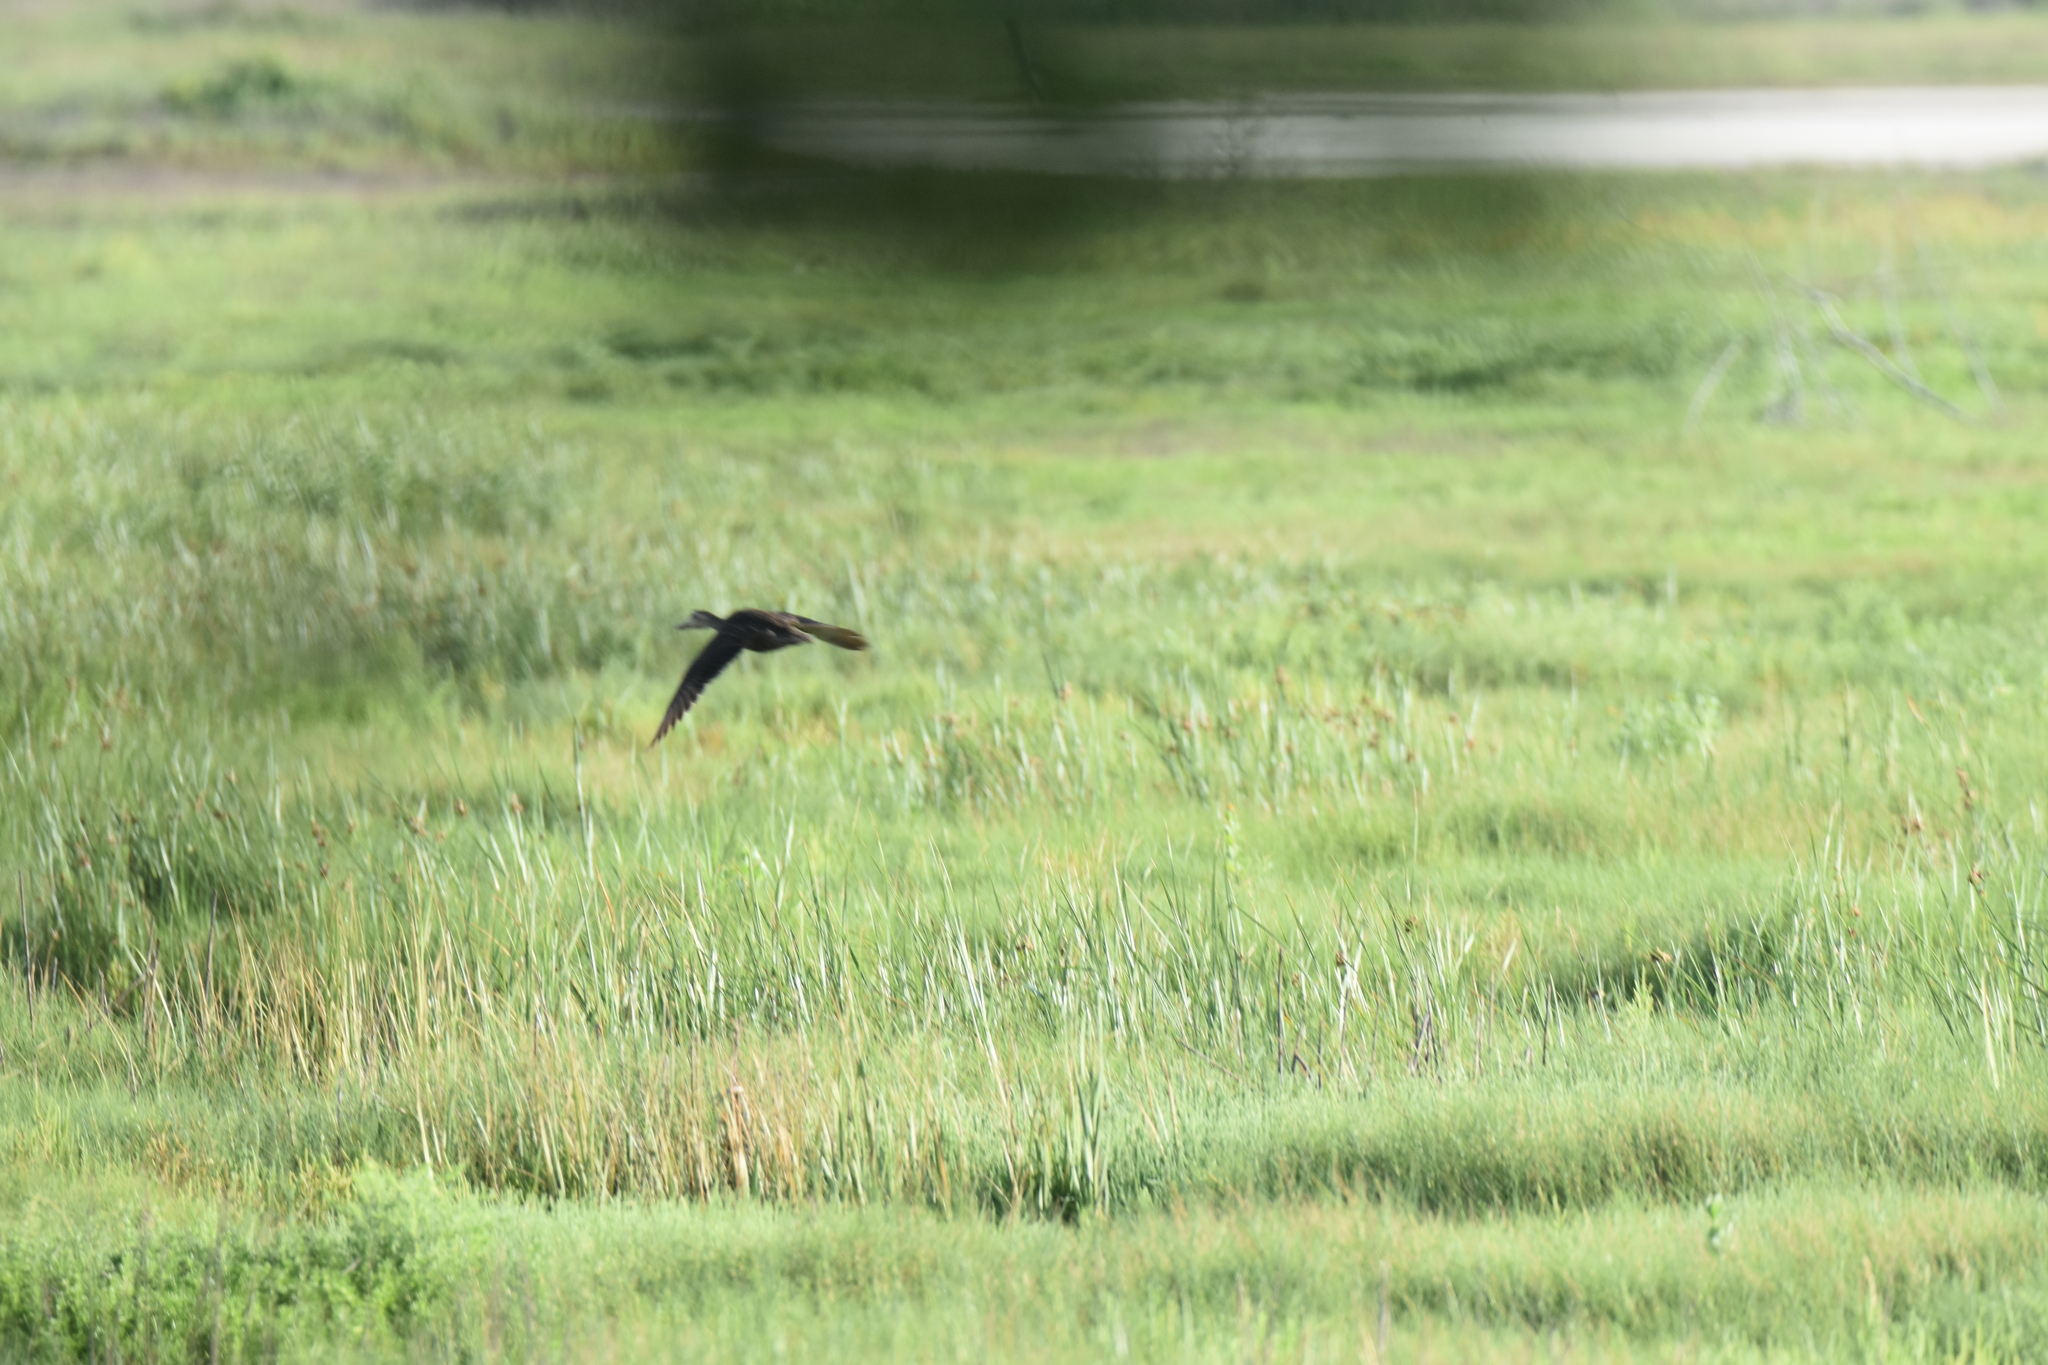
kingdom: Animalia
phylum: Chordata
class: Aves
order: Anseriformes
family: Anatidae
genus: Anas
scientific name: Anas fulvigula
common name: Mottled duck
